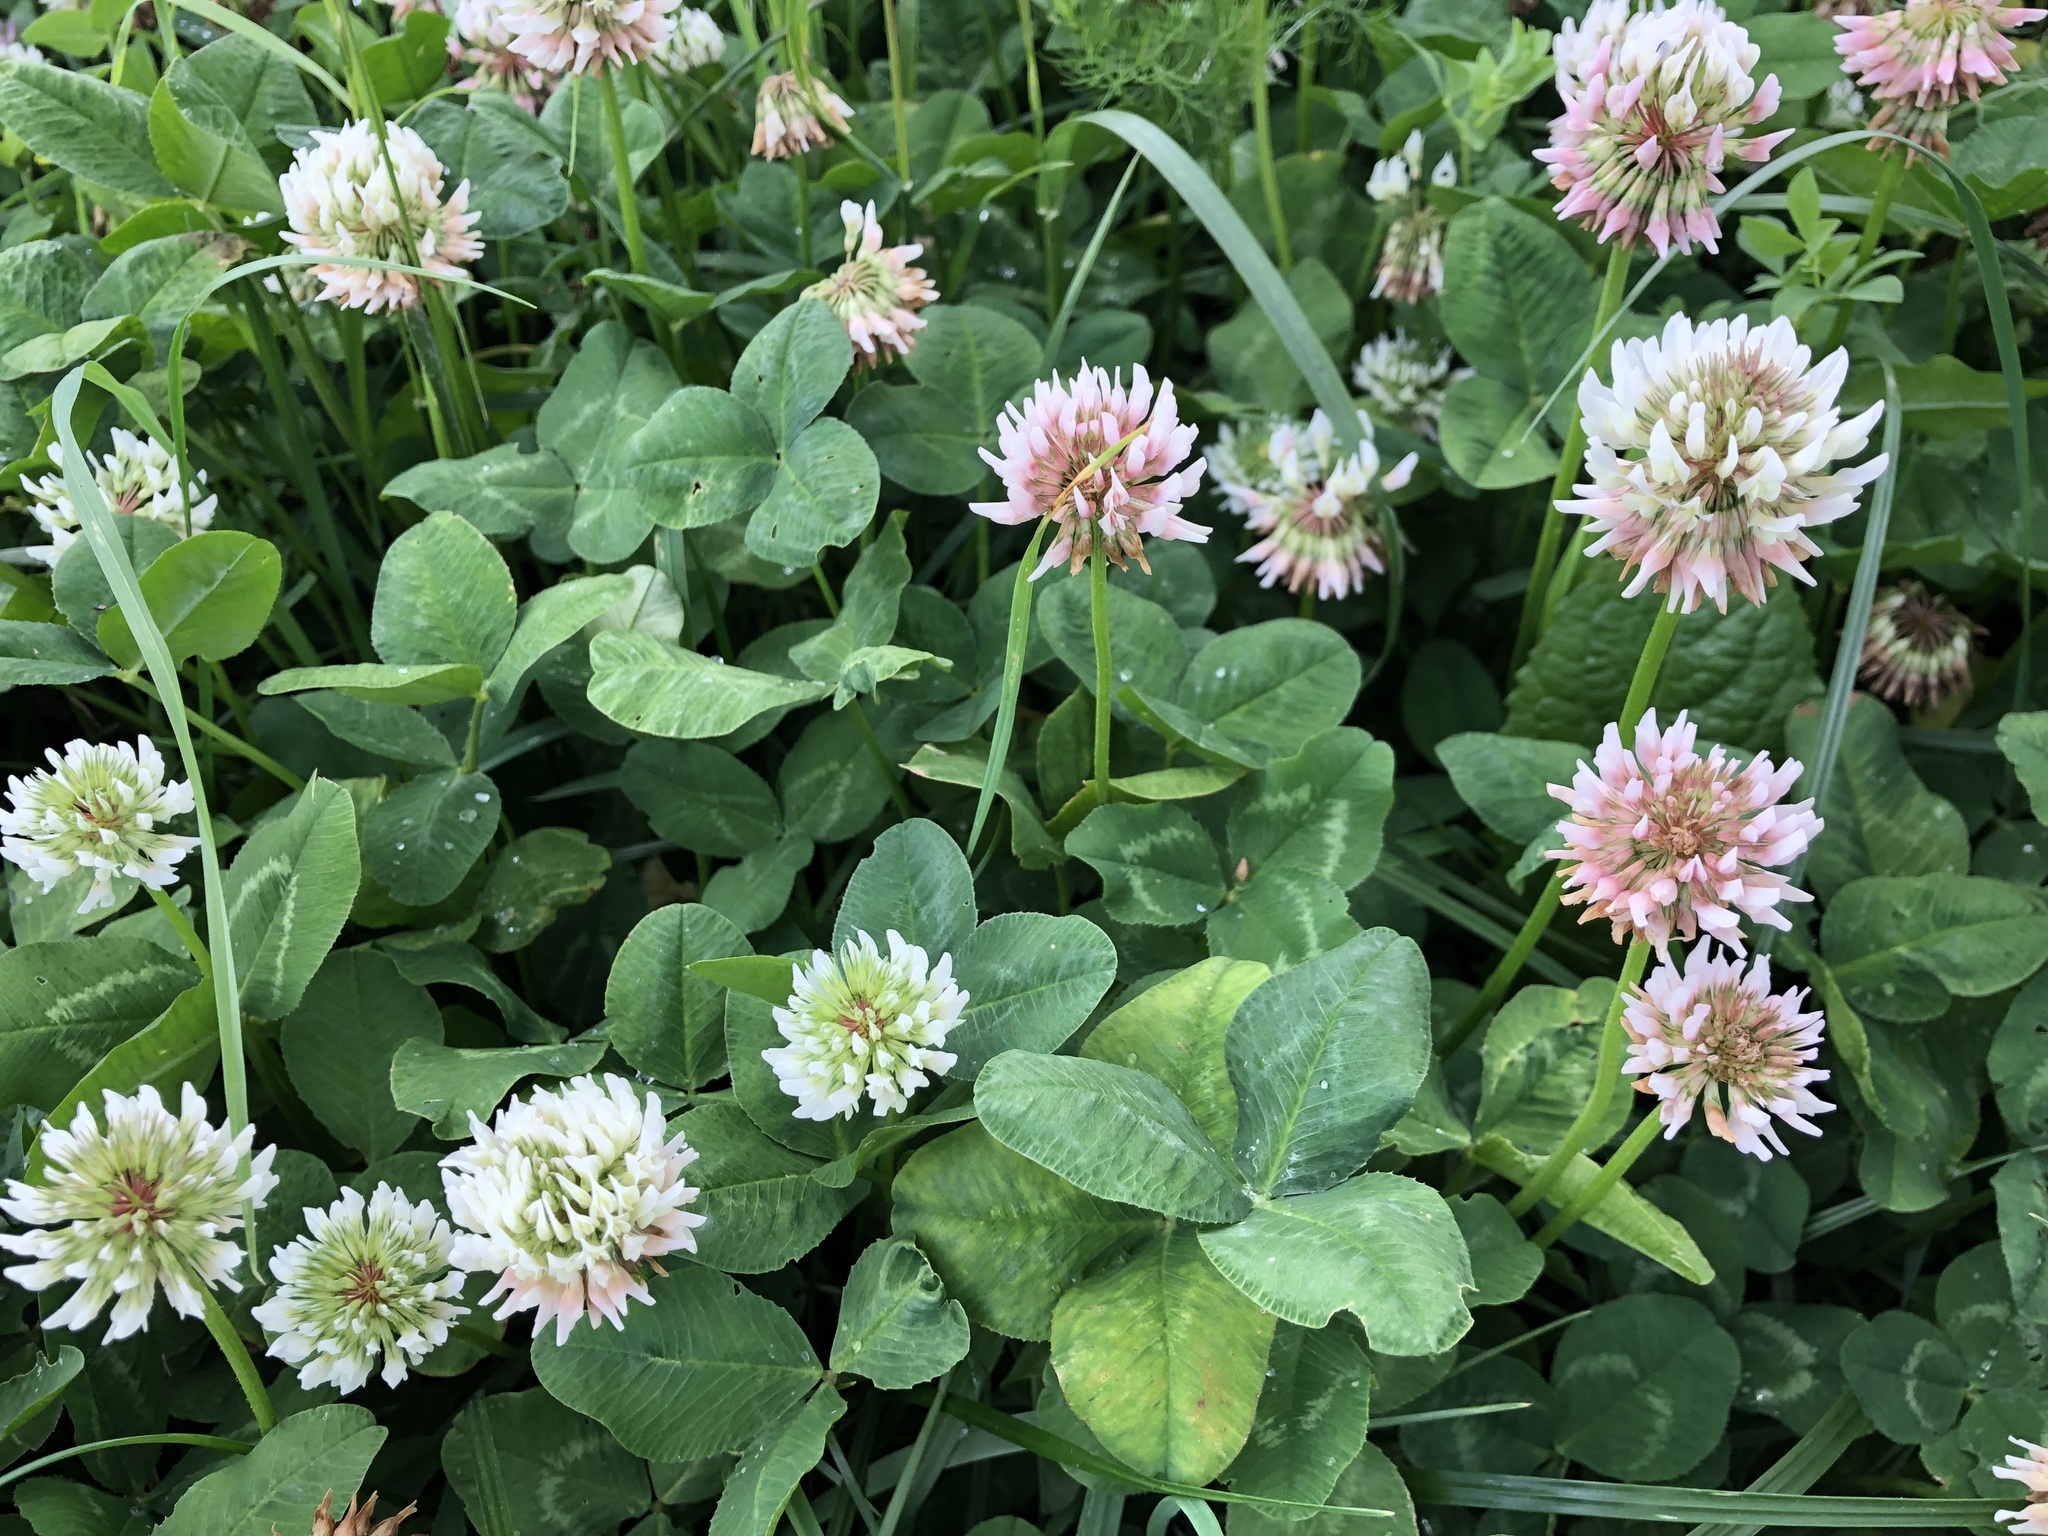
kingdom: Plantae
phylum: Tracheophyta
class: Magnoliopsida
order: Fabales
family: Fabaceae
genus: Trifolium
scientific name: Trifolium repens
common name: White clover
